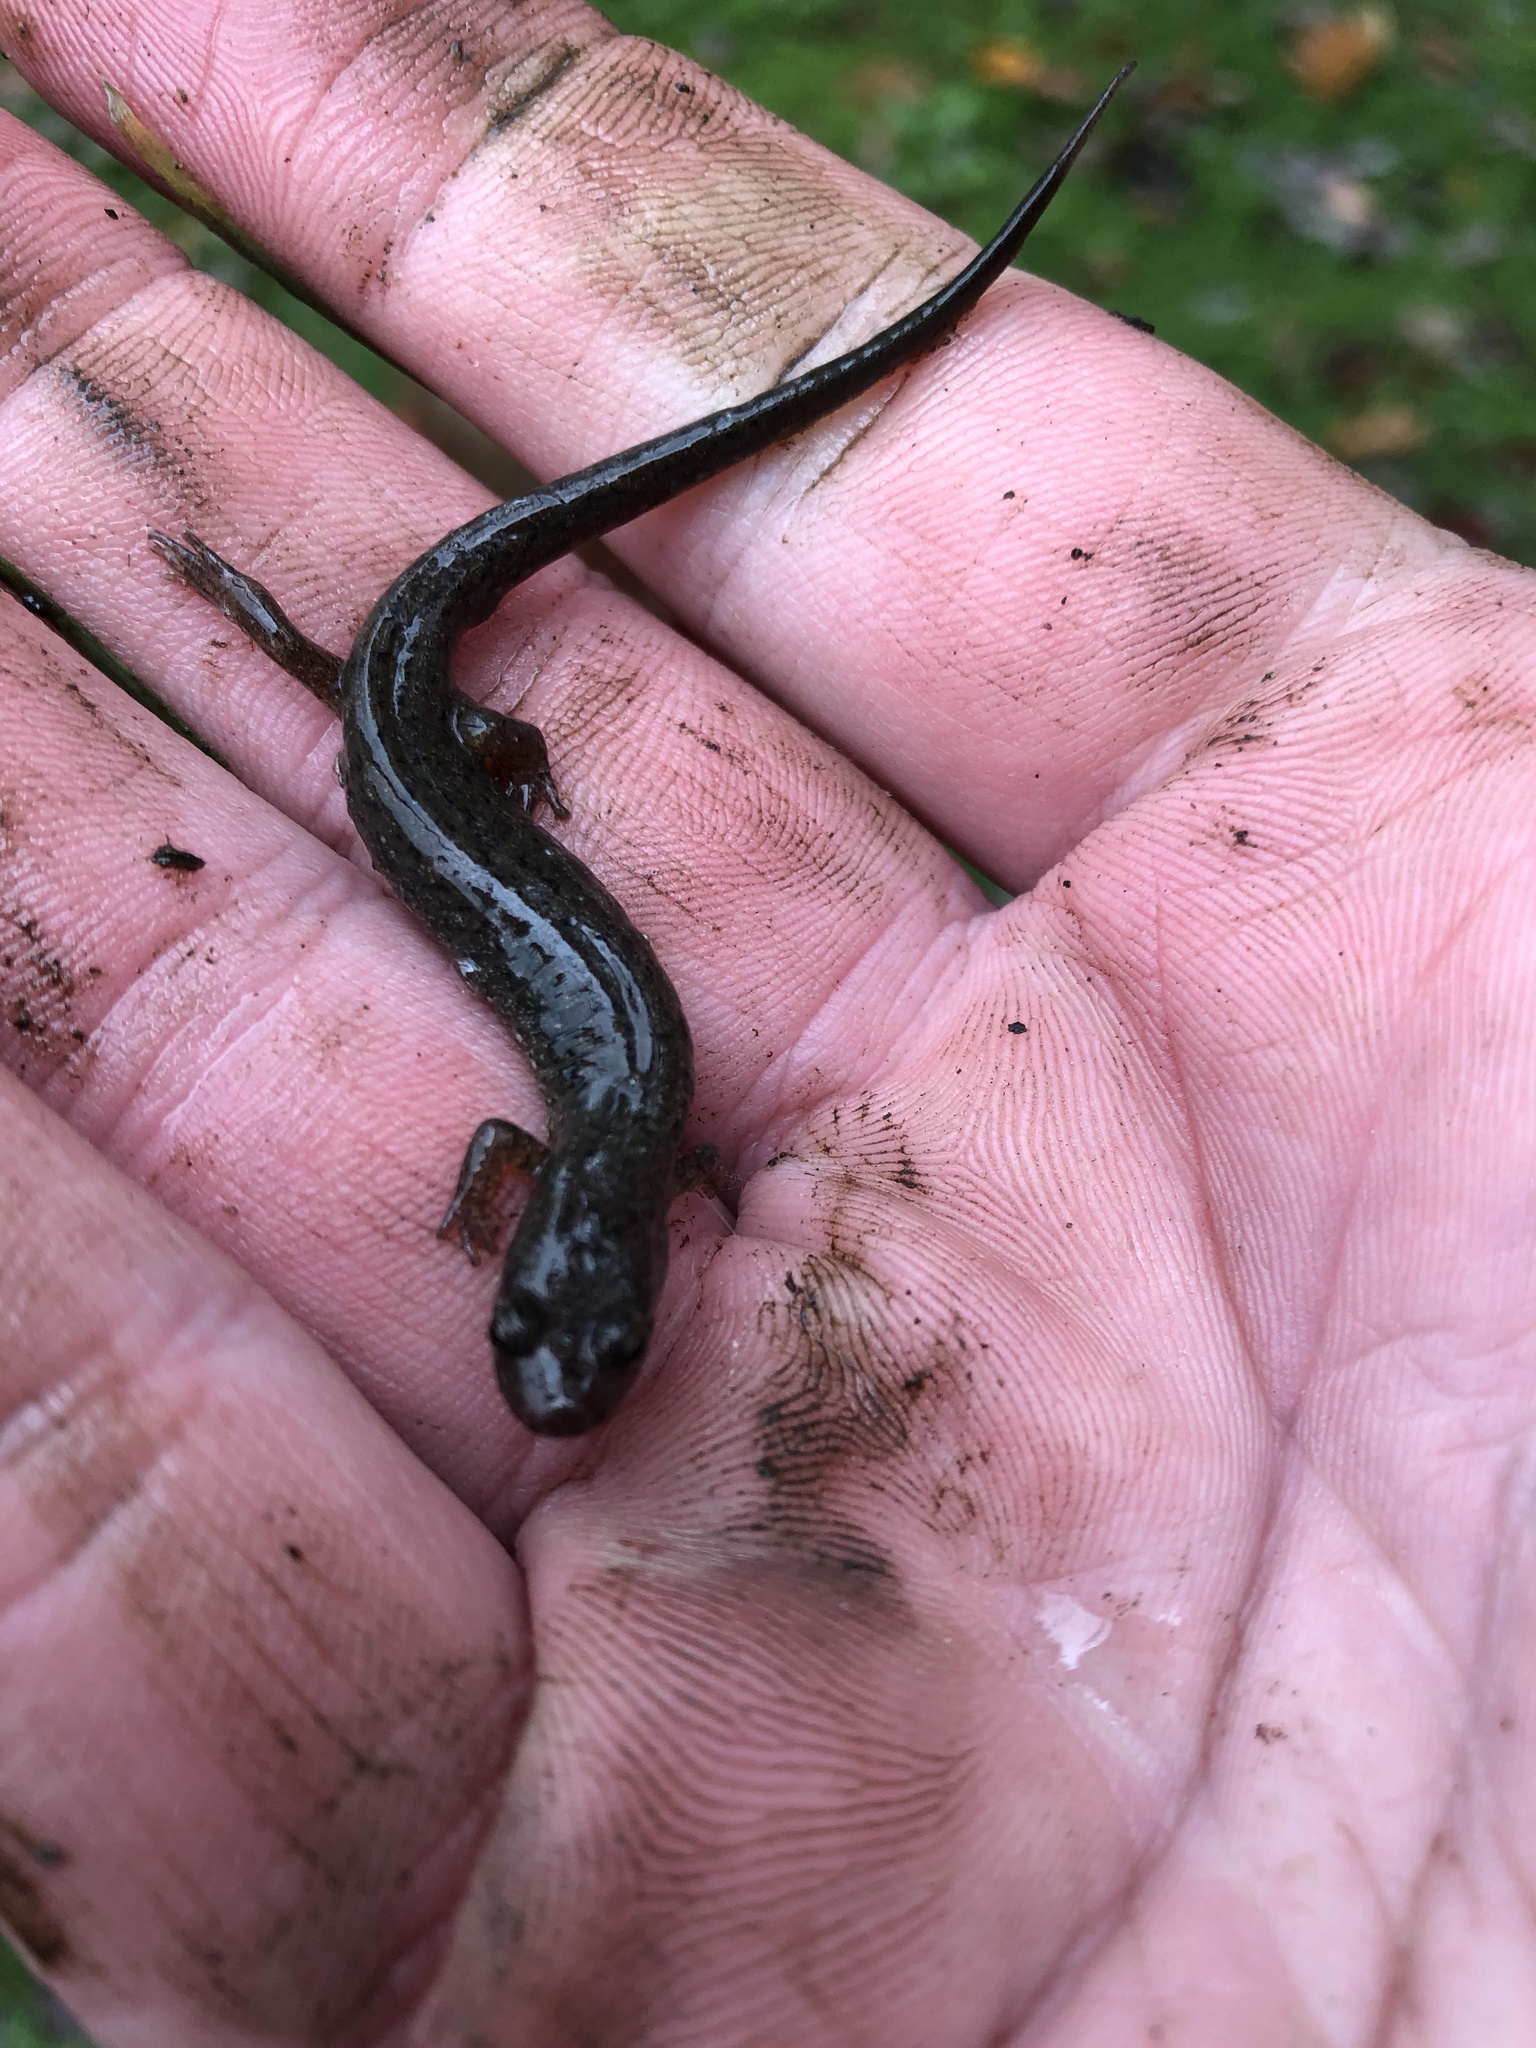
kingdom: Animalia
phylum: Chordata
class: Amphibia
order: Caudata
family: Plethodontidae
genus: Desmognathus
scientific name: Desmognathus fuscus
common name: Northern dusky salamander
